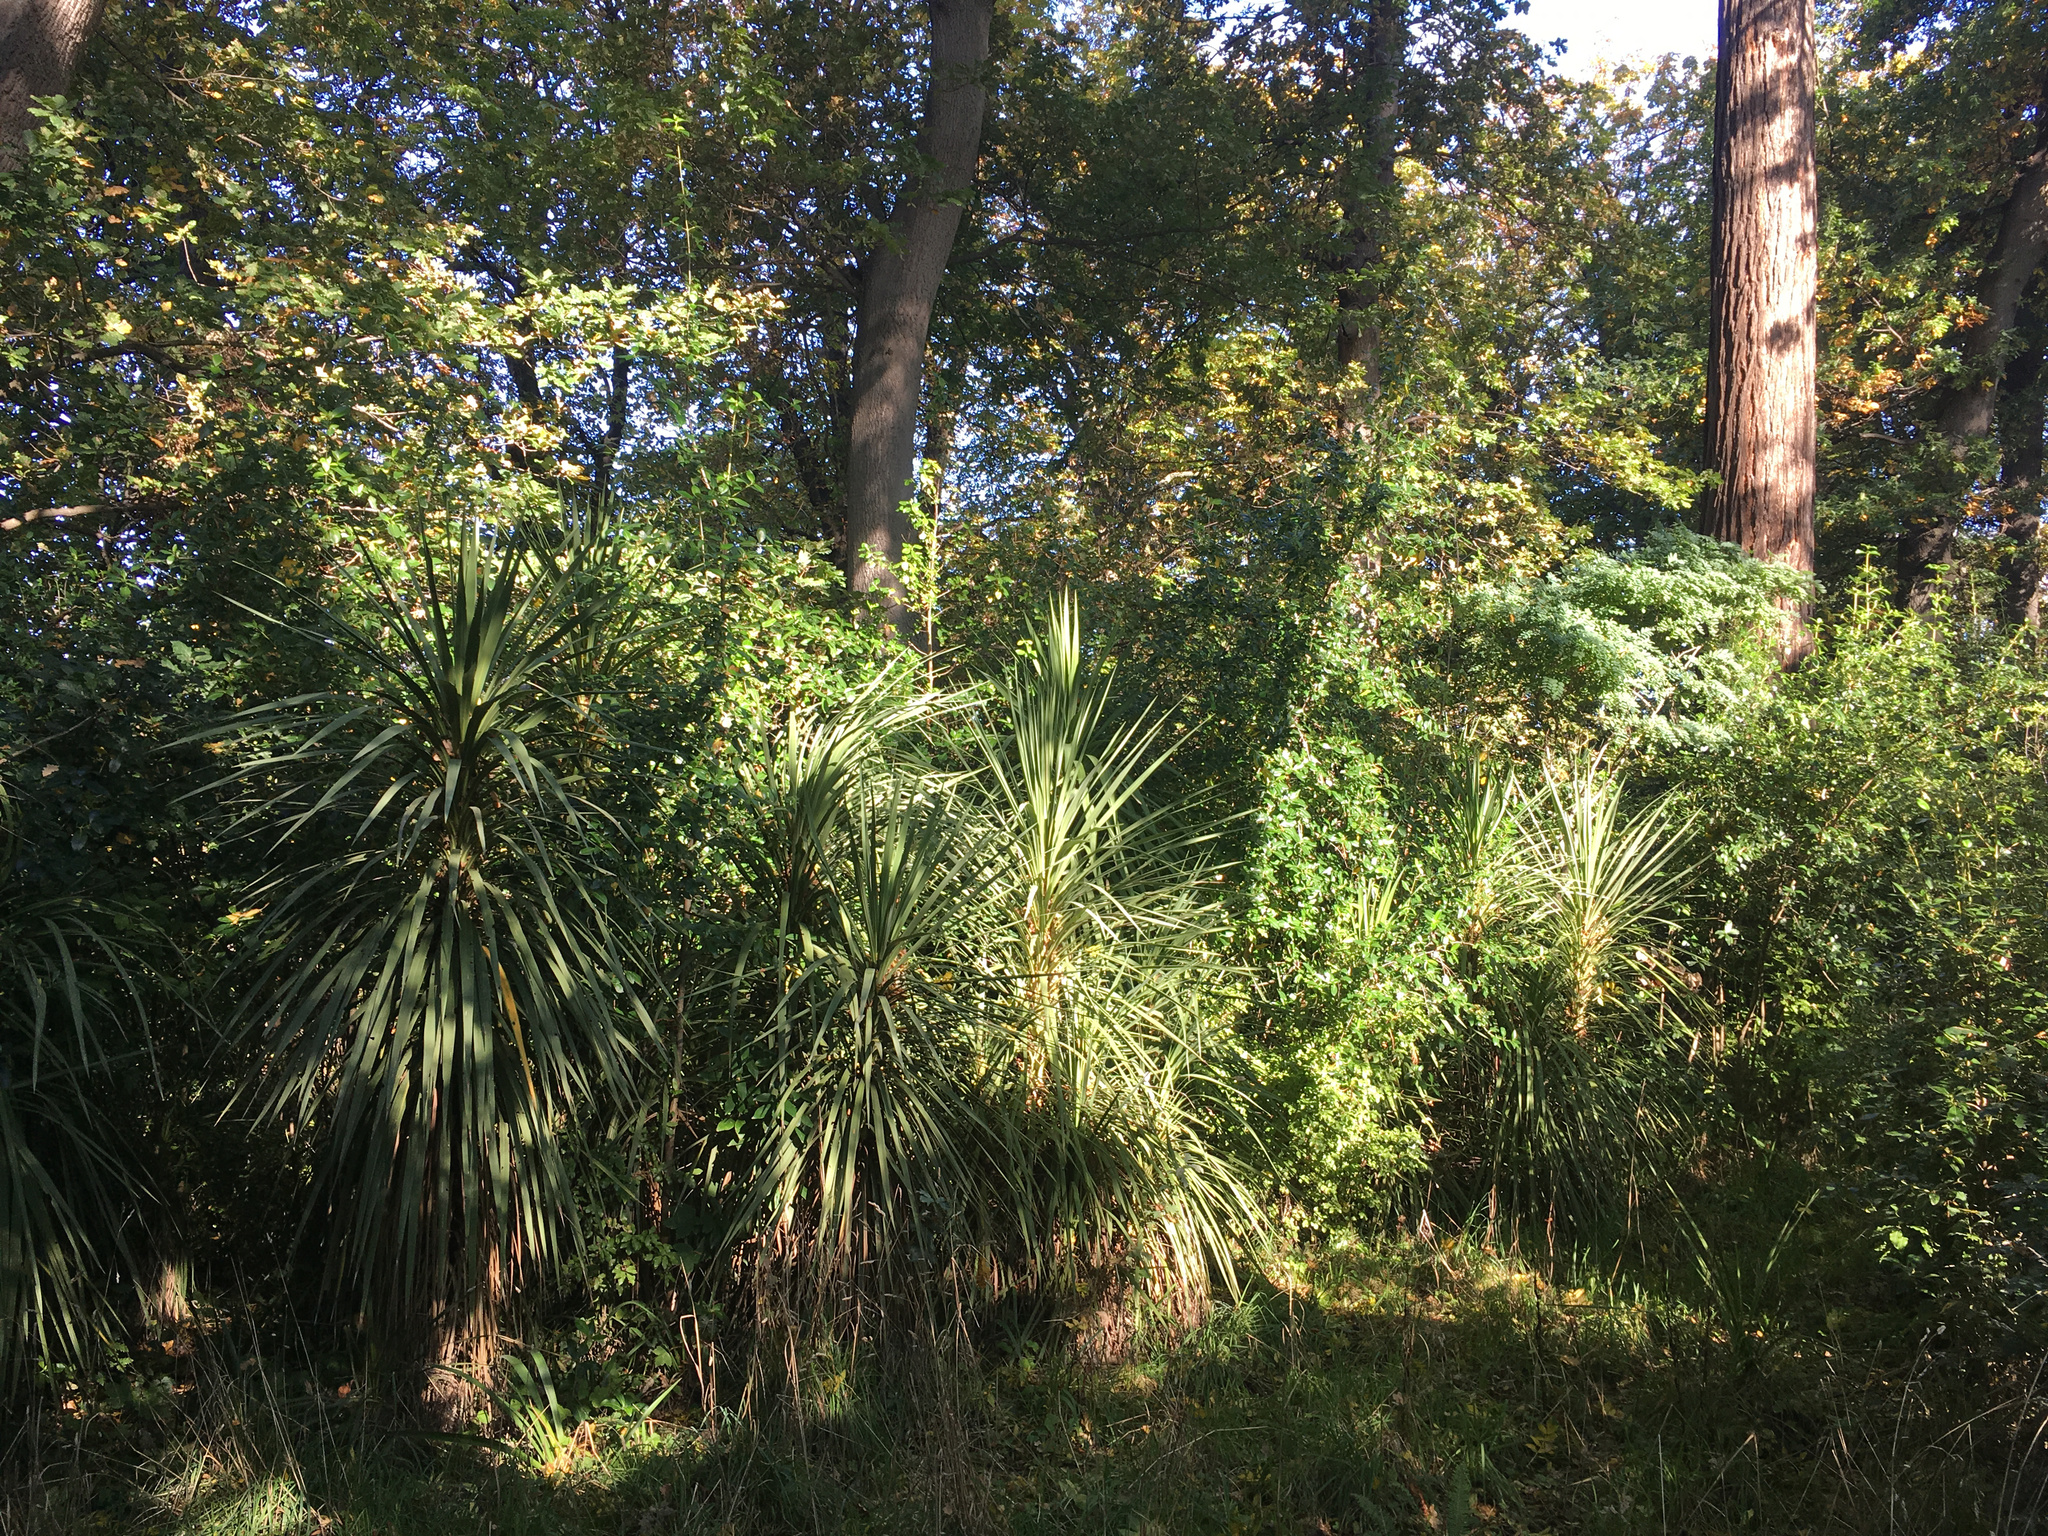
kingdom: Plantae
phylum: Tracheophyta
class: Liliopsida
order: Asparagales
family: Asparagaceae
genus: Cordyline
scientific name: Cordyline australis
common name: Cabbage-palm
